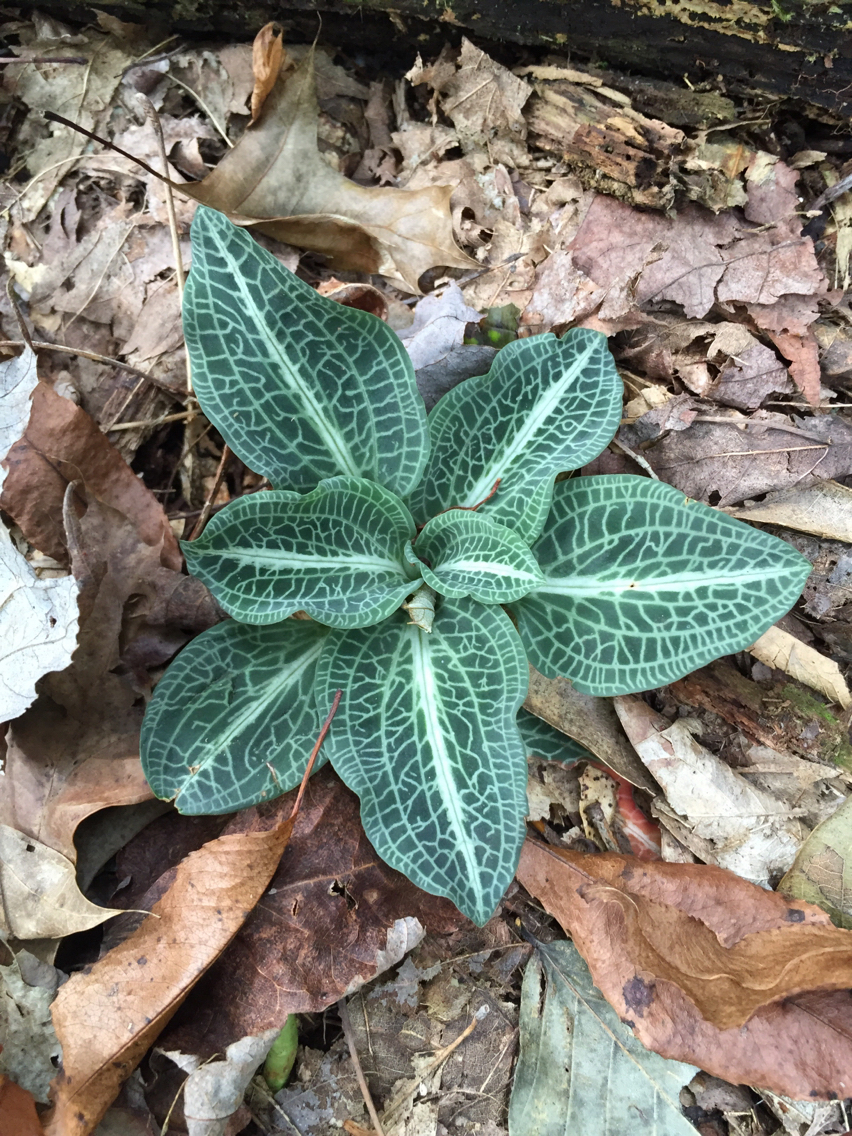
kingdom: Plantae
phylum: Tracheophyta
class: Liliopsida
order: Asparagales
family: Orchidaceae
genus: Goodyera
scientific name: Goodyera pubescens
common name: Downy rattlesnake-plantain
